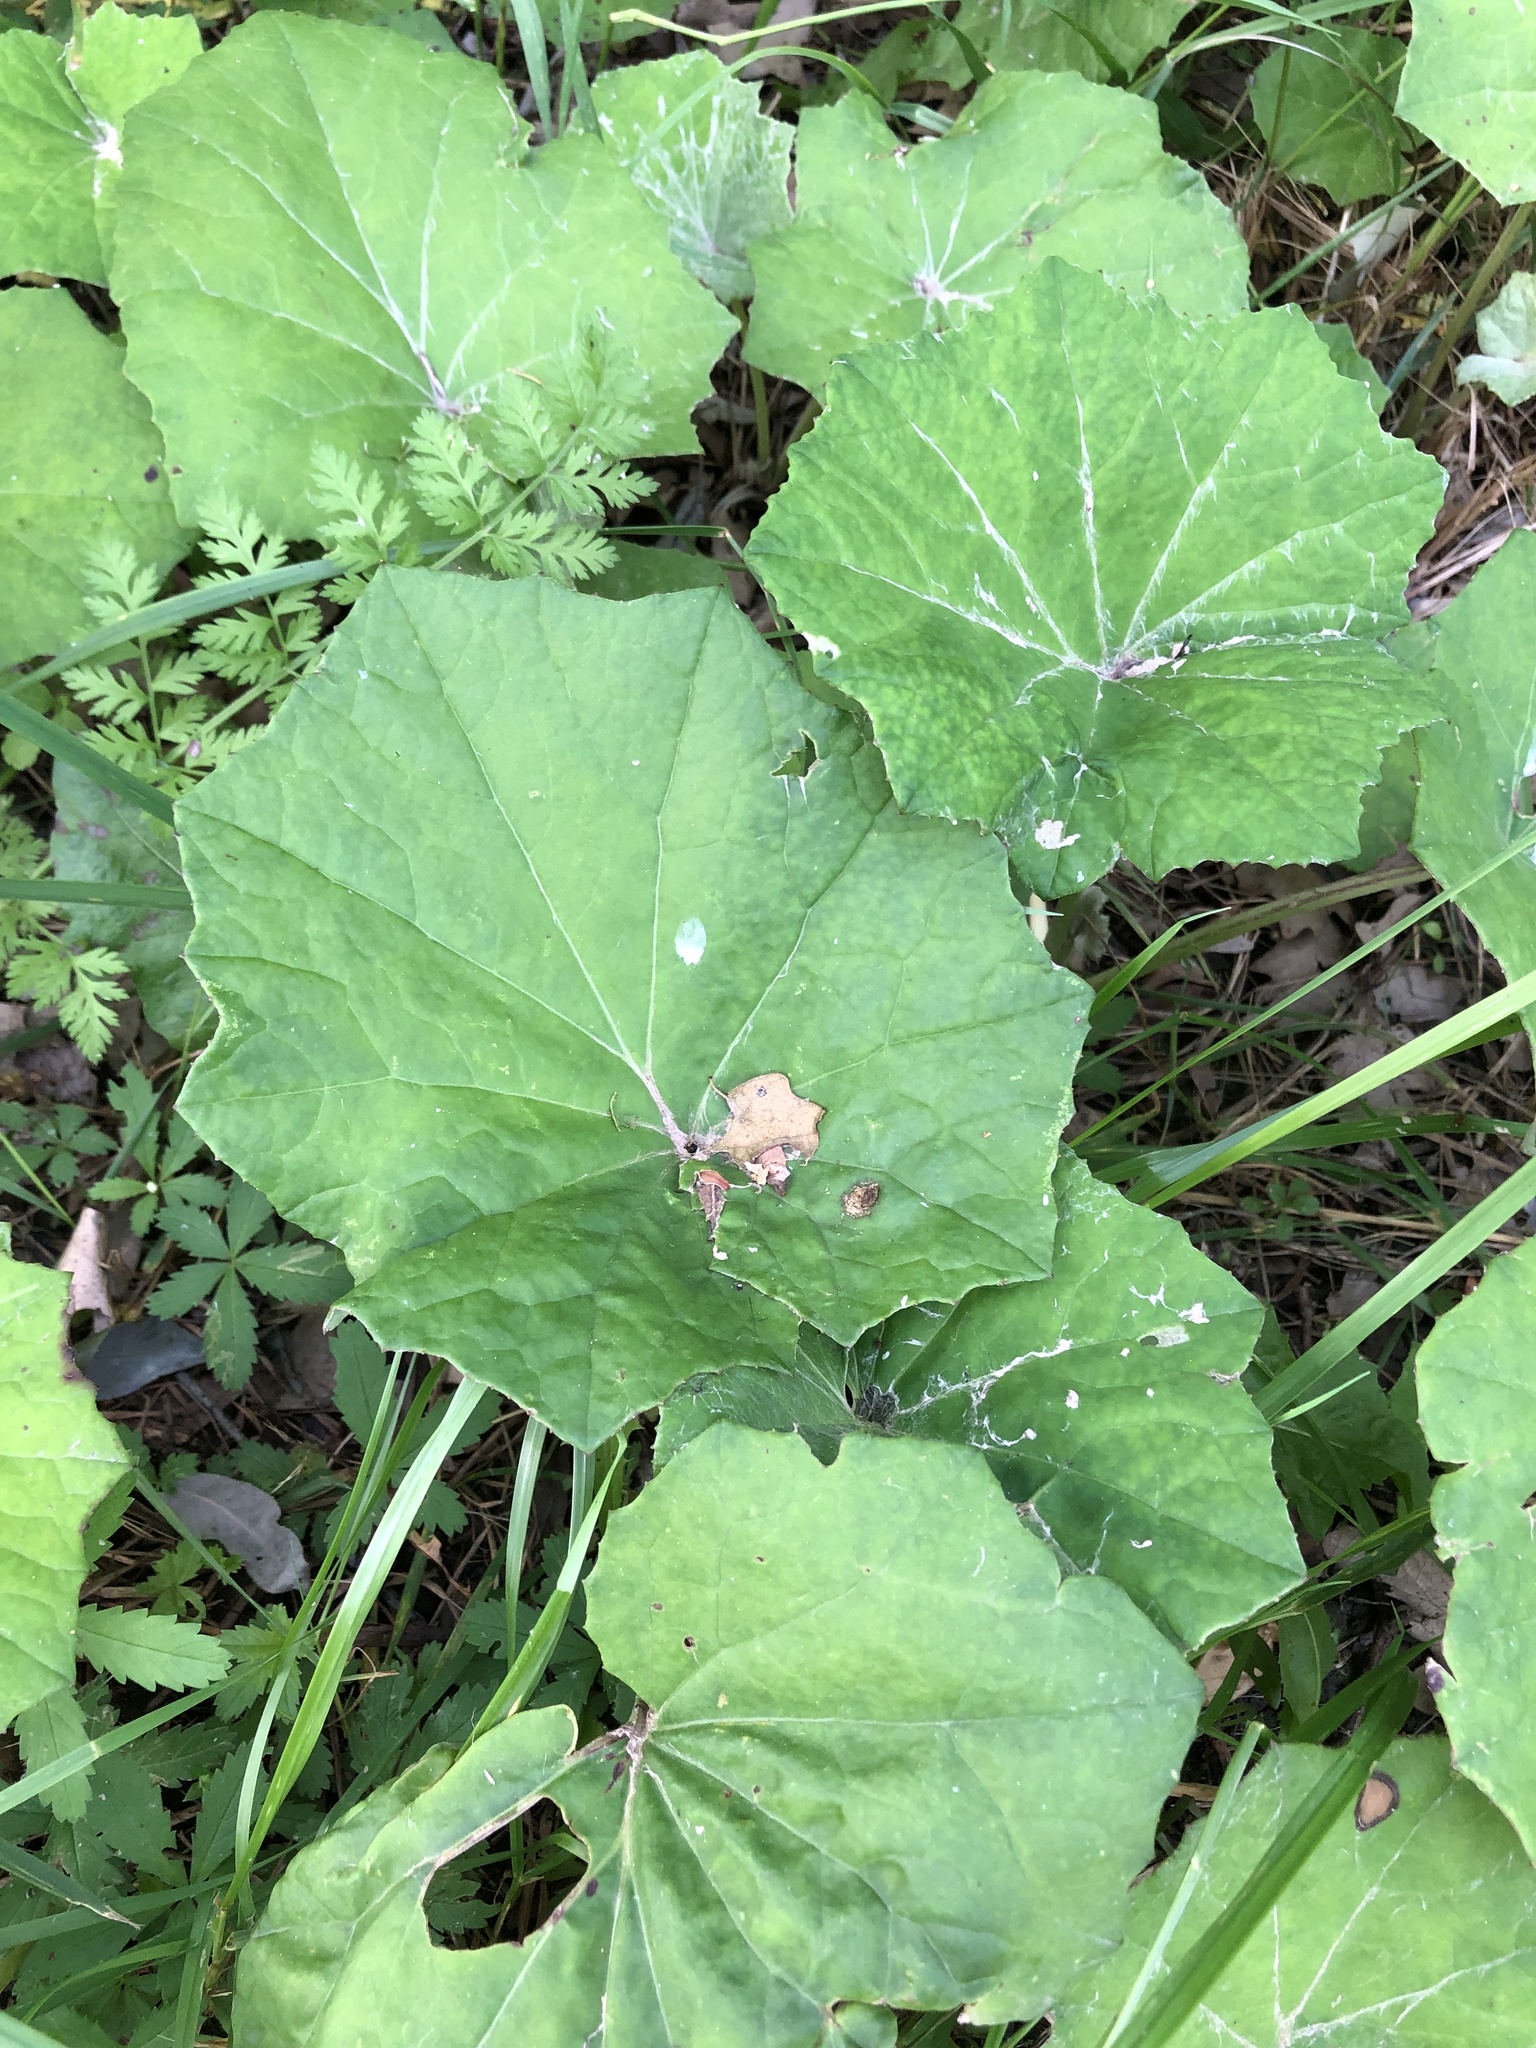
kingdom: Plantae
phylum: Tracheophyta
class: Magnoliopsida
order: Asterales
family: Asteraceae
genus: Tussilago
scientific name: Tussilago farfara
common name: Coltsfoot
